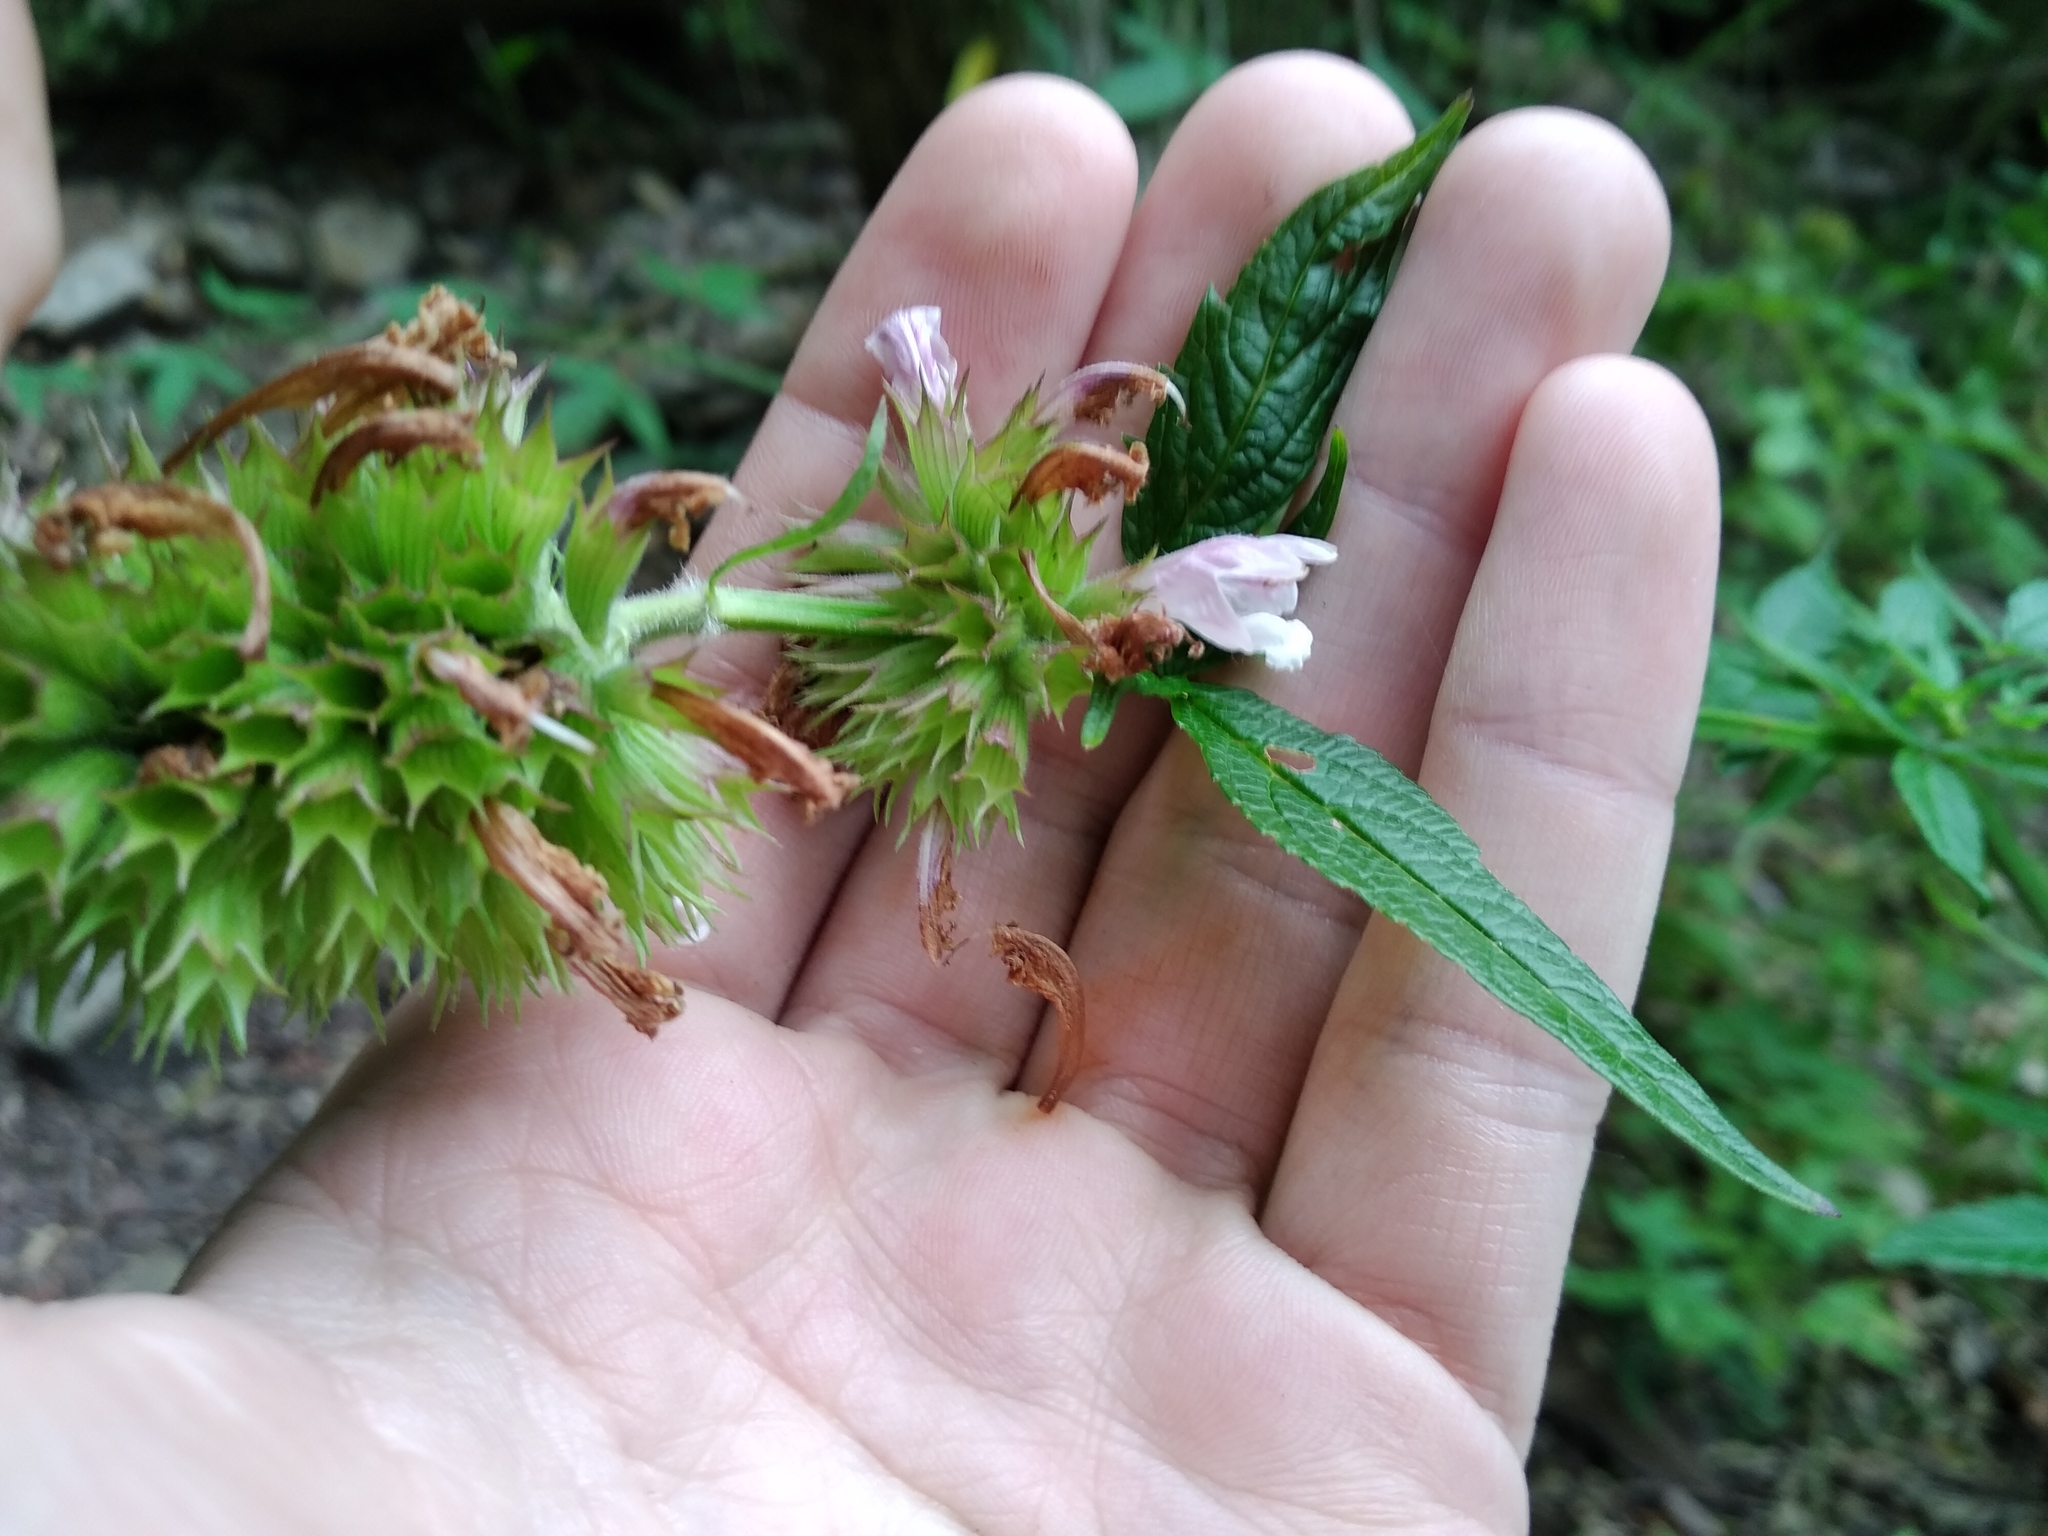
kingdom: Plantae
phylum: Tracheophyta
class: Magnoliopsida
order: Lamiales
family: Lamiaceae
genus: Cedronella
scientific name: Cedronella canariensis
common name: Canary islands balm
